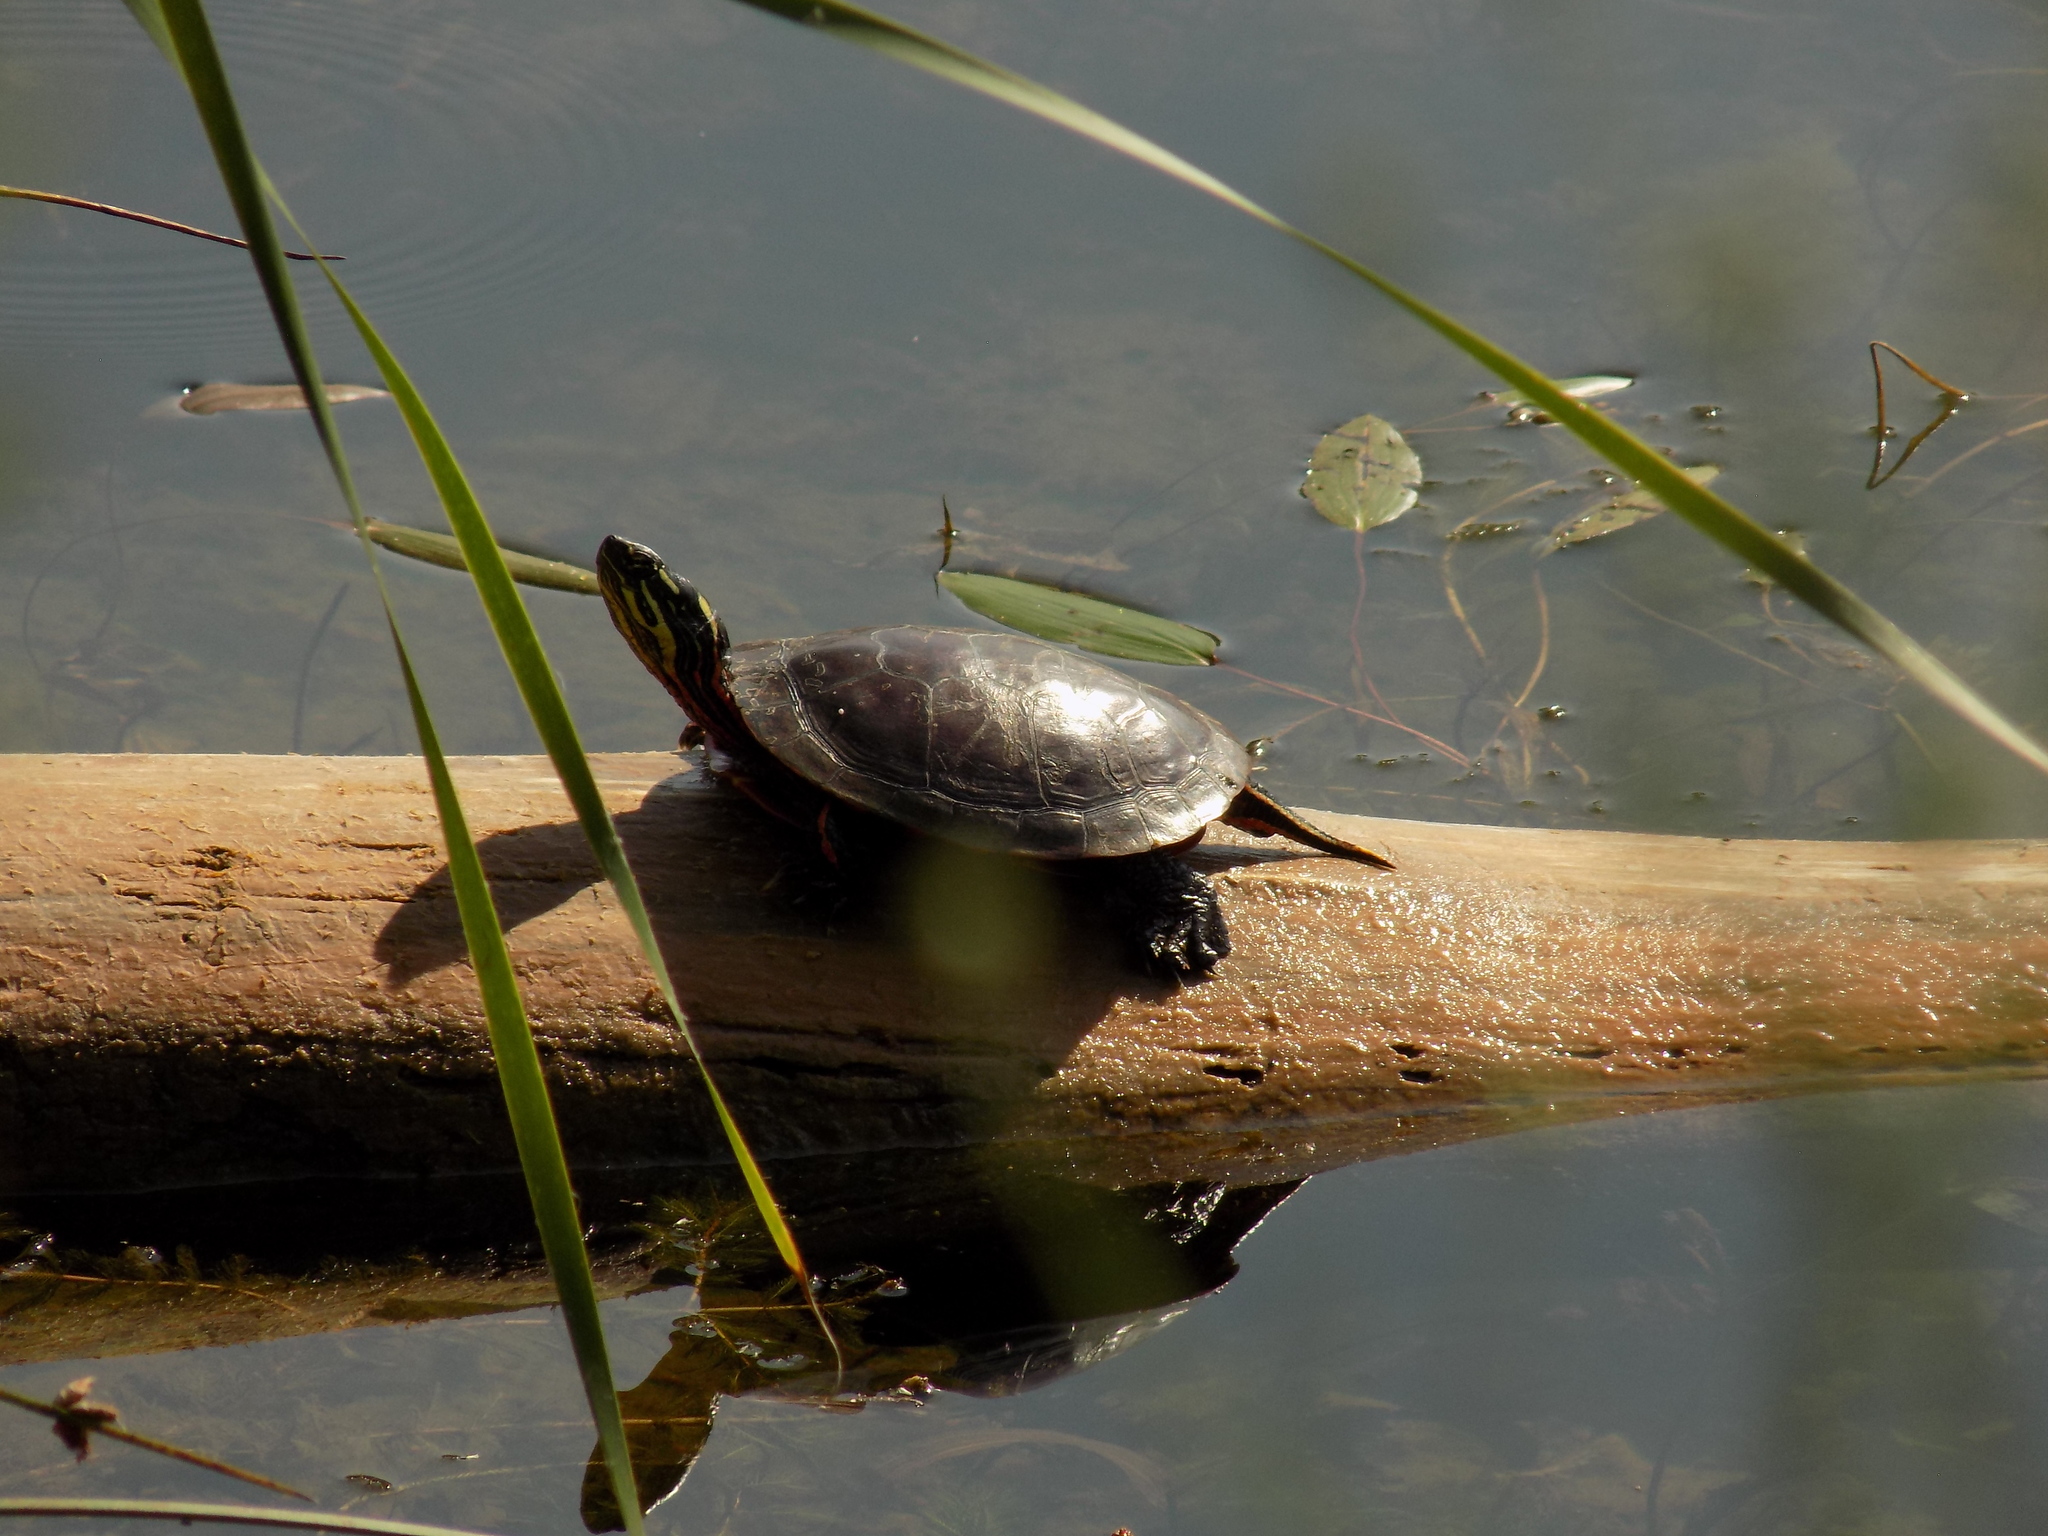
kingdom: Animalia
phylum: Chordata
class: Testudines
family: Emydidae
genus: Chrysemys
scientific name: Chrysemys picta
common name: Painted turtle
